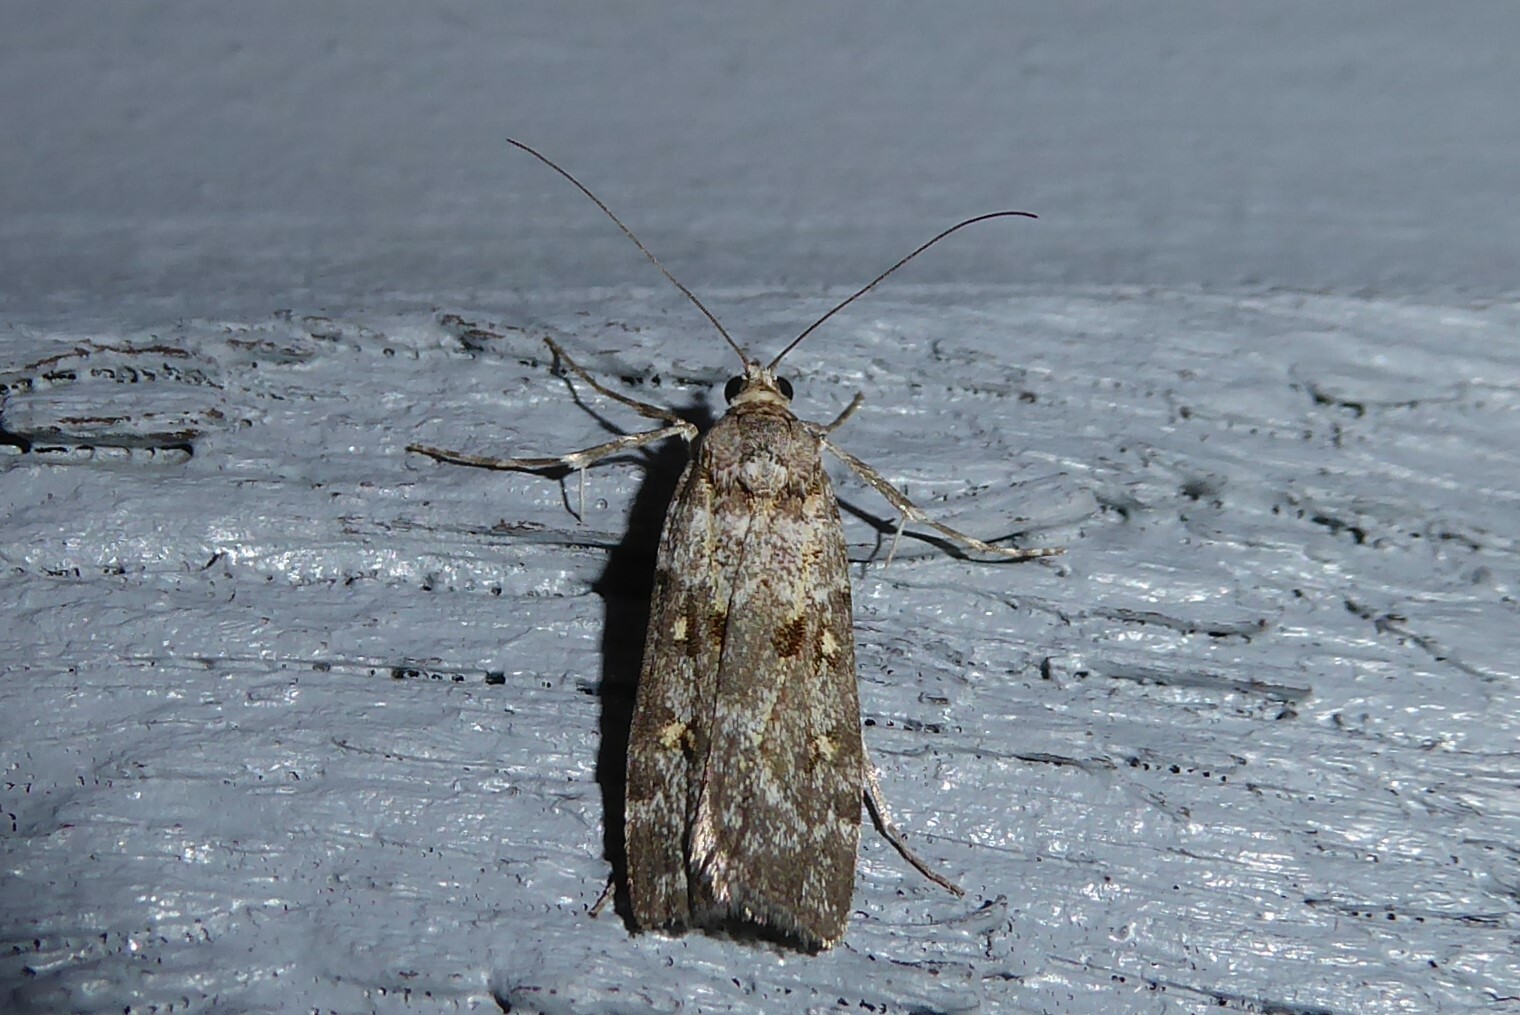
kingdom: Animalia
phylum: Arthropoda
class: Insecta
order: Lepidoptera
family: Crambidae
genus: Scoparia
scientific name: Scoparia tetracycla
